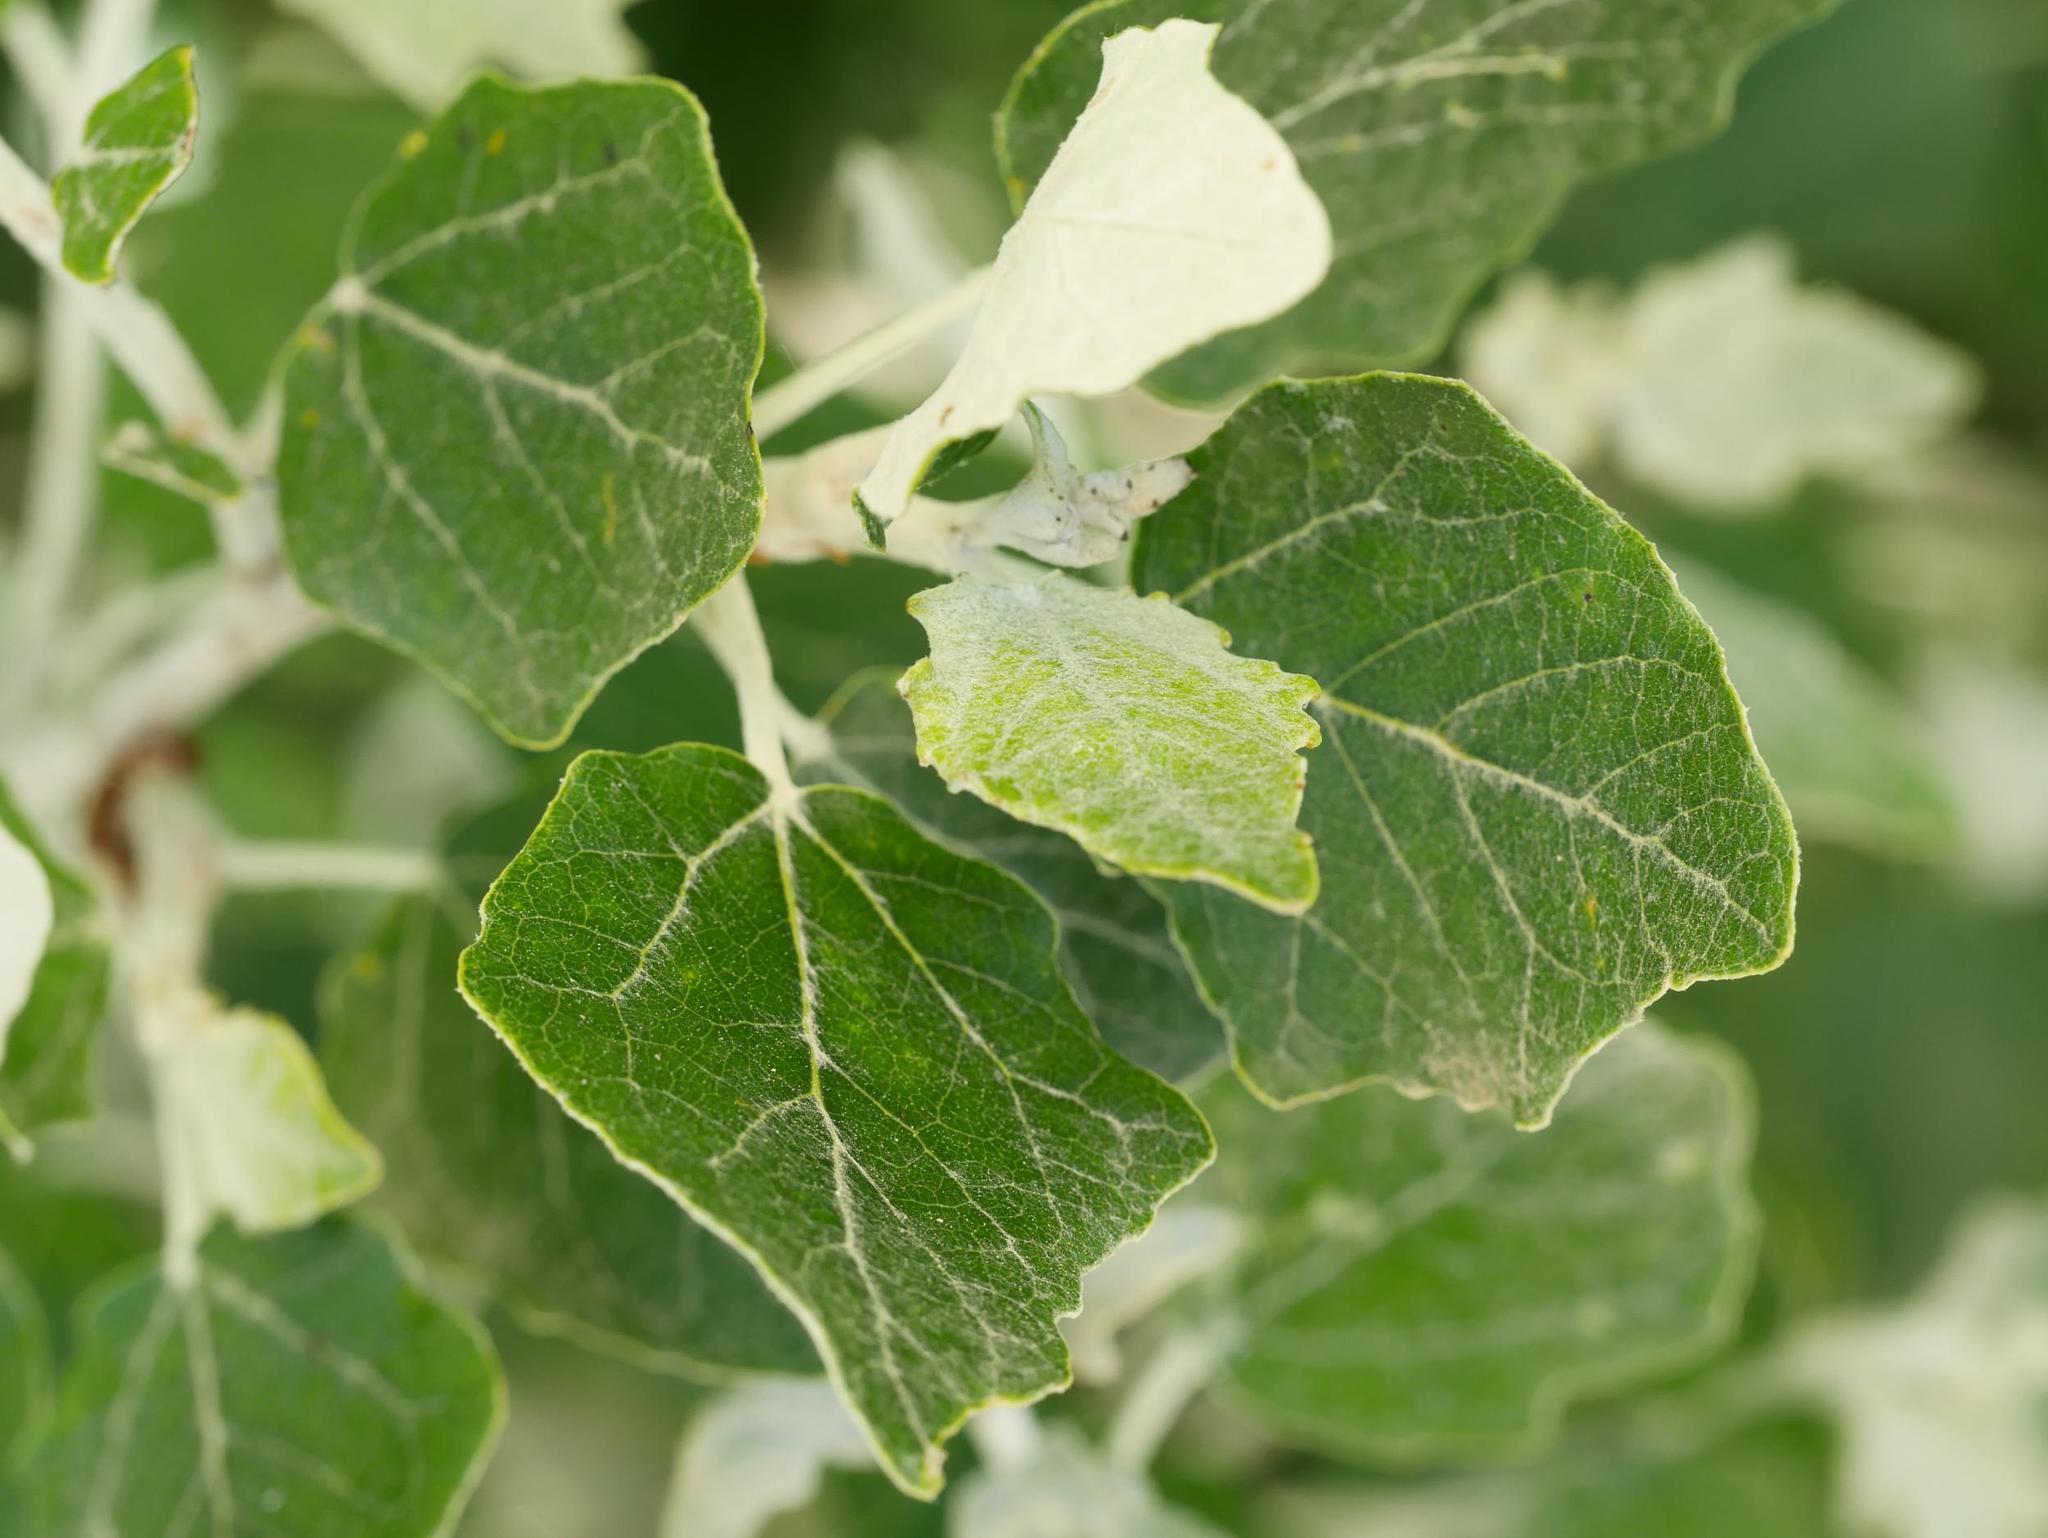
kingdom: Plantae
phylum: Tracheophyta
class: Magnoliopsida
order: Malpighiales
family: Salicaceae
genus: Populus
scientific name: Populus alba
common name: White poplar
